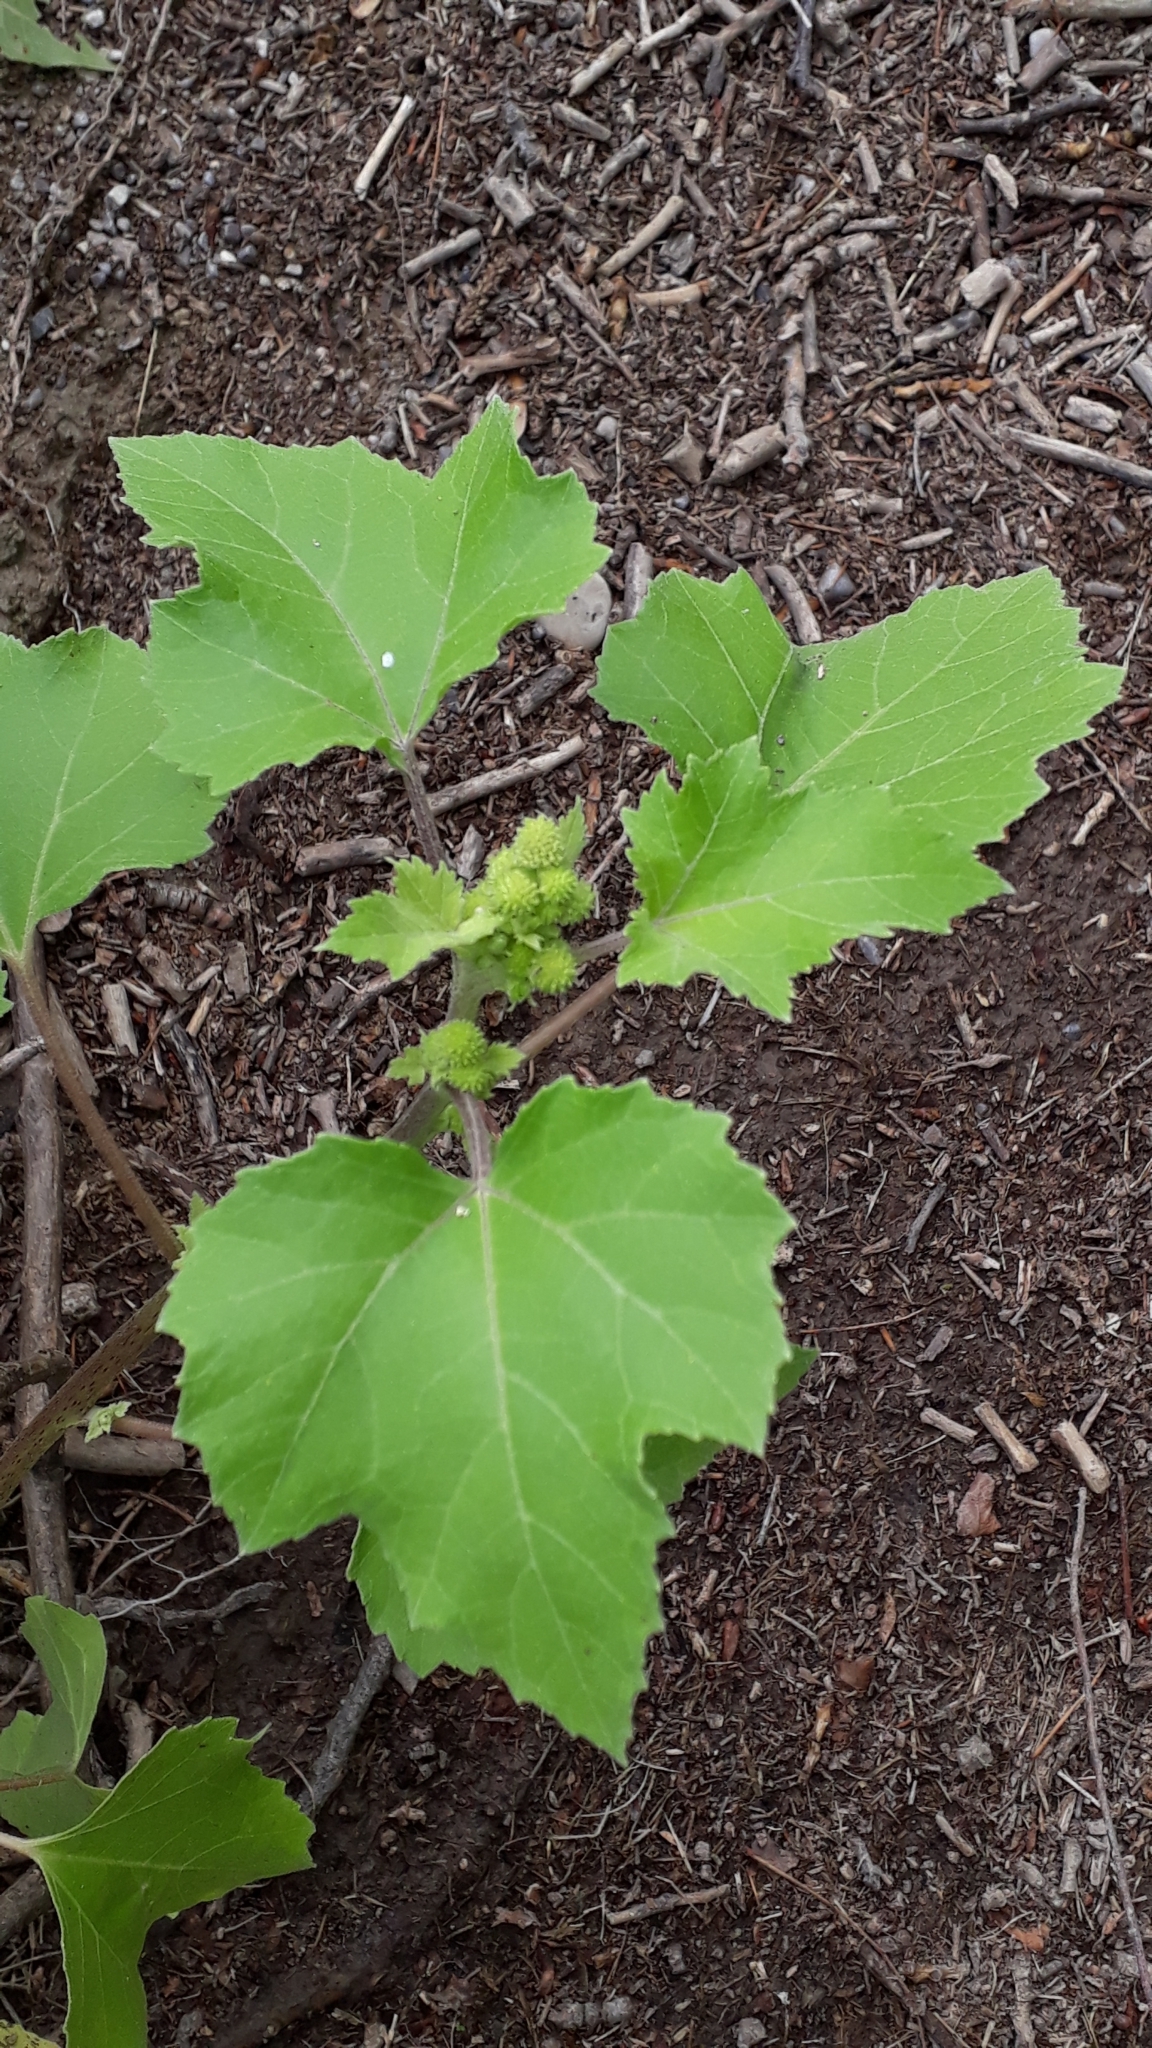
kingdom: Plantae
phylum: Tracheophyta
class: Magnoliopsida
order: Asterales
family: Asteraceae
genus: Xanthium
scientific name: Xanthium strumarium
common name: Rough cocklebur
